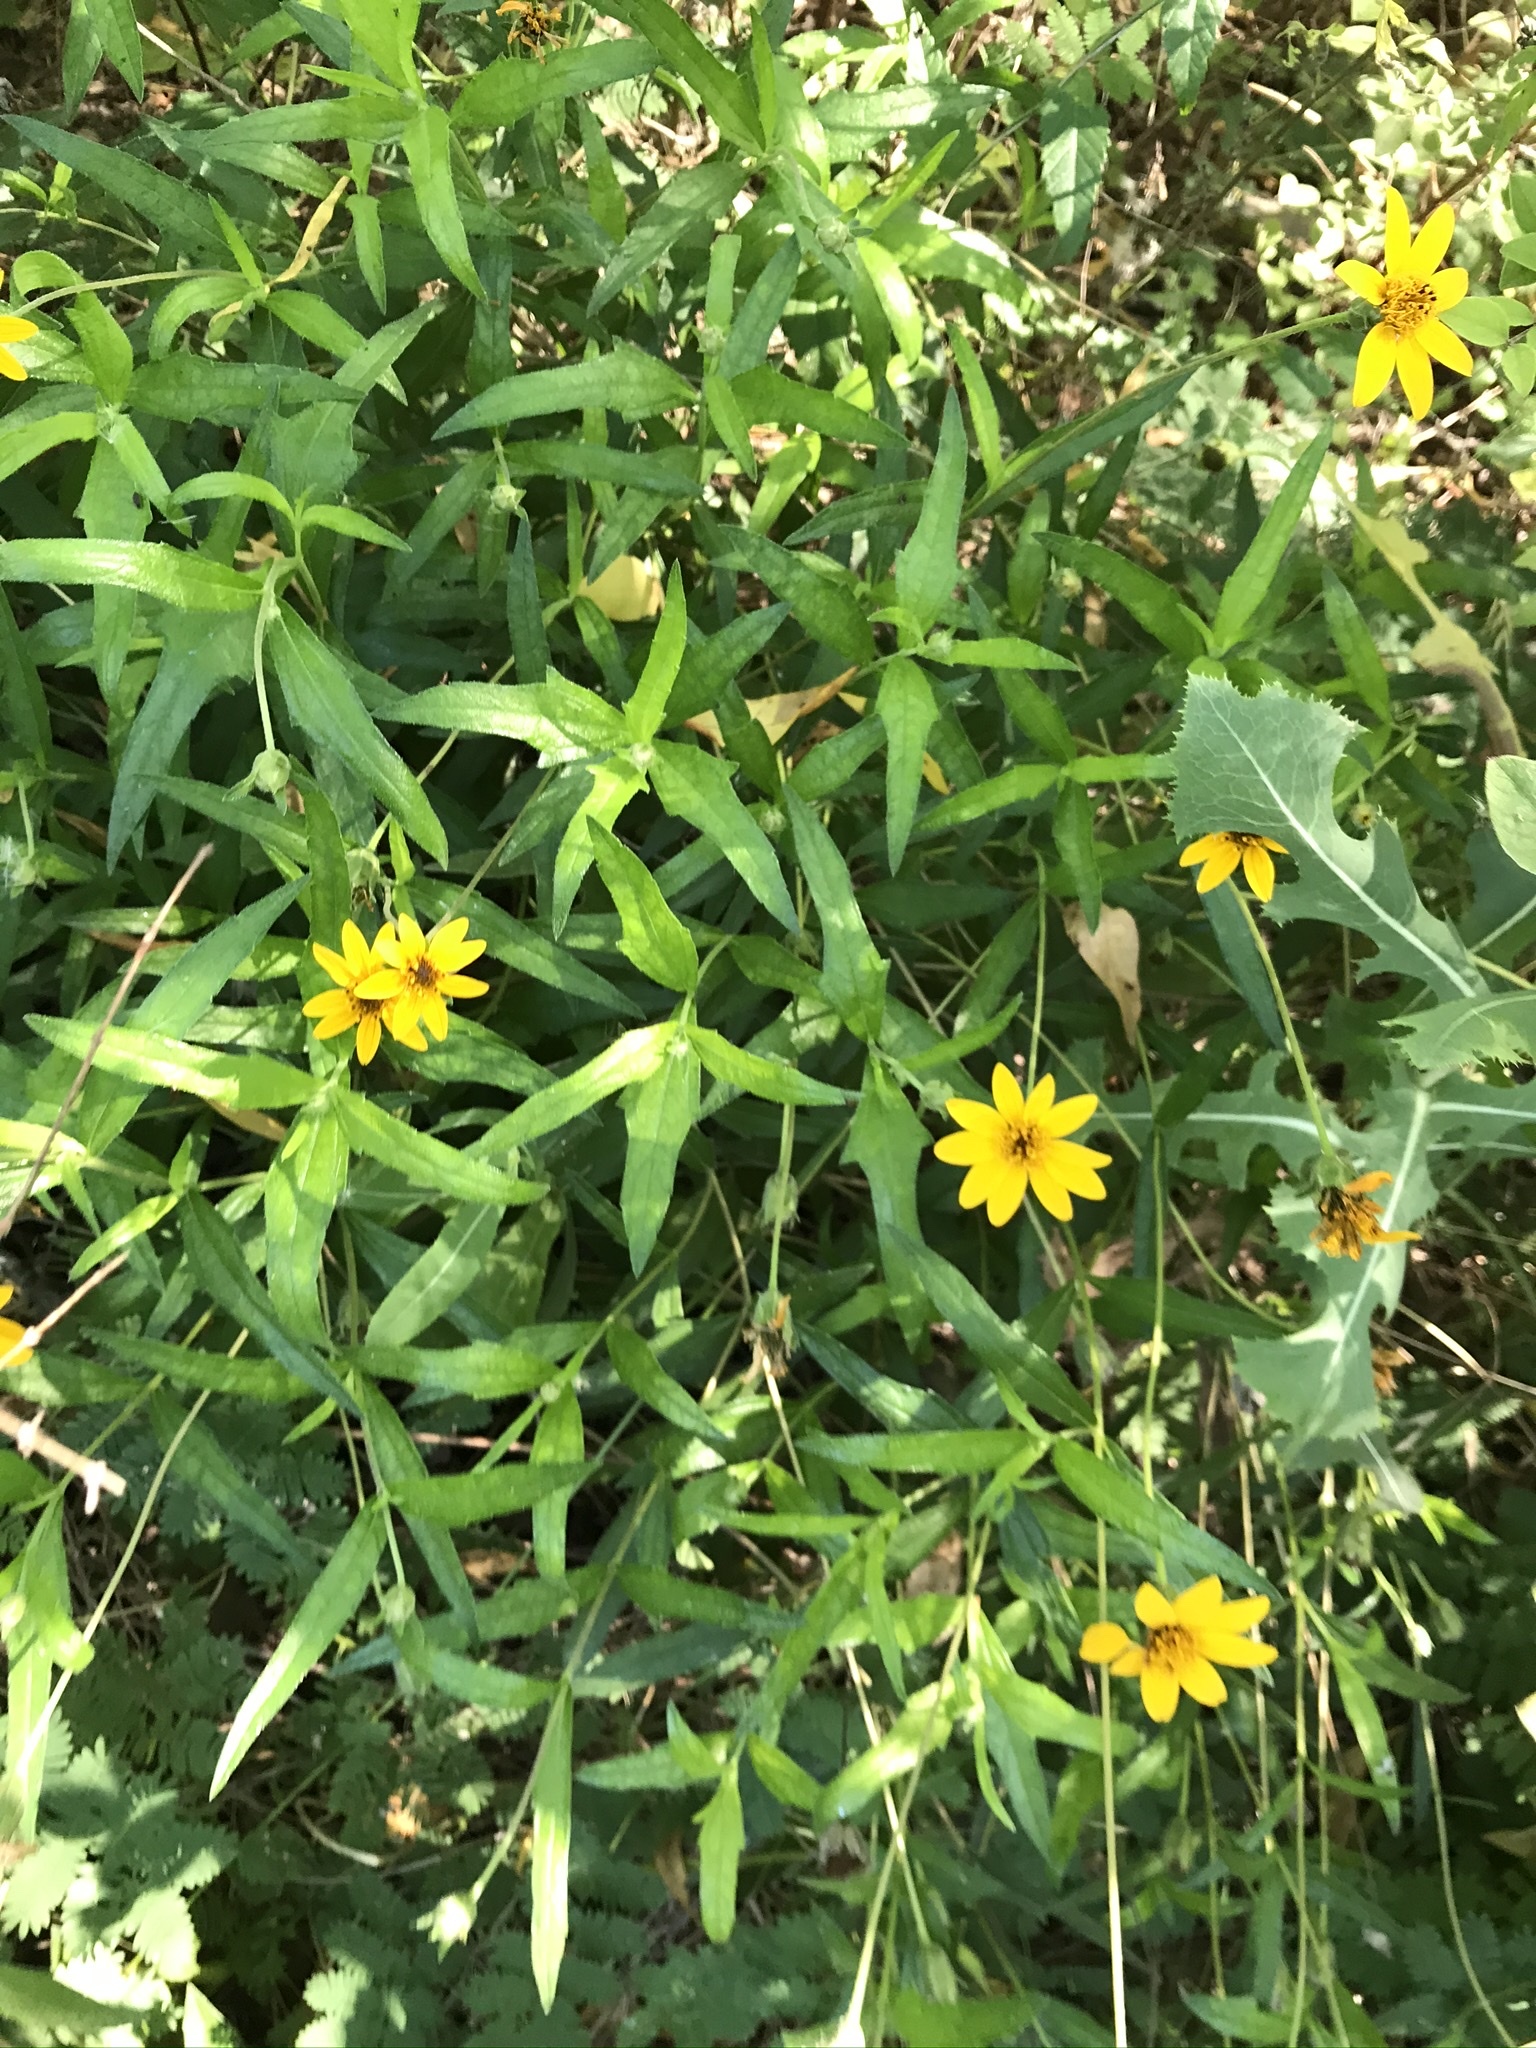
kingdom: Plantae
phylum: Tracheophyta
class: Magnoliopsida
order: Asterales
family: Asteraceae
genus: Wedelia
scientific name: Wedelia acapulcensis
